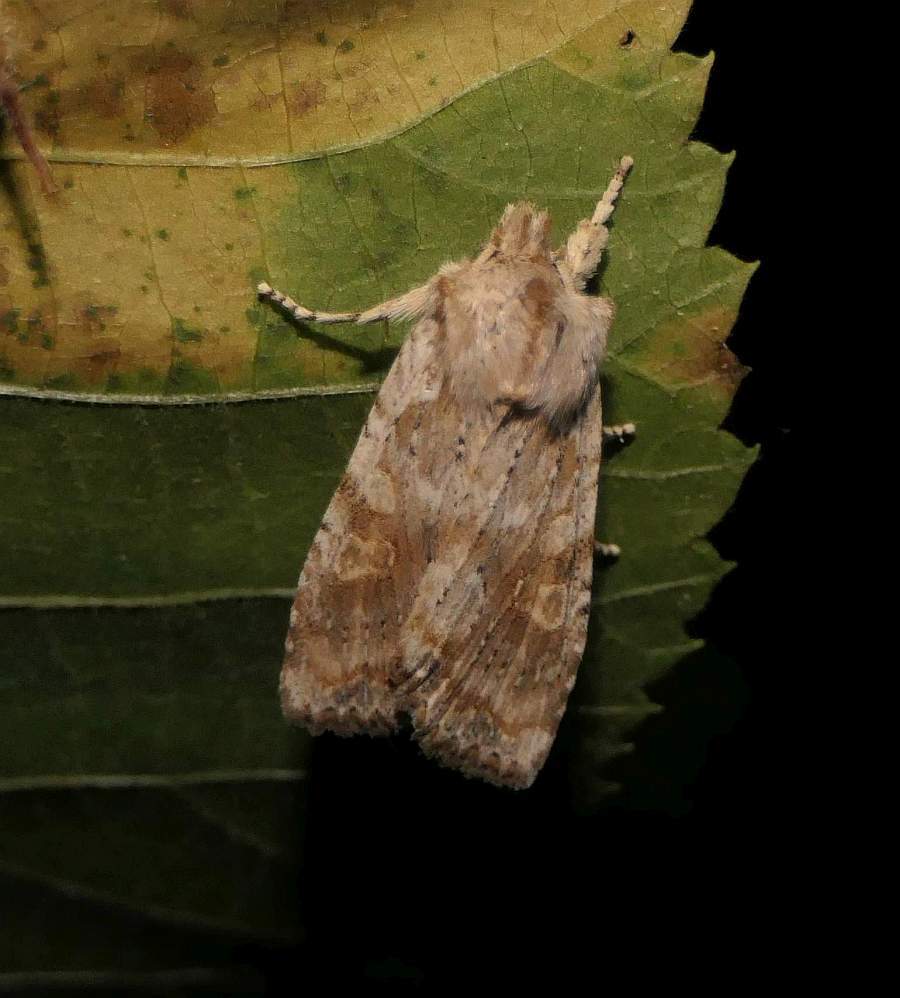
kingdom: Animalia
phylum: Arthropoda
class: Insecta
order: Lepidoptera
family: Noctuidae
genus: Lithophane
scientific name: Lithophane bethunei
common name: Bethune's pinion moth
